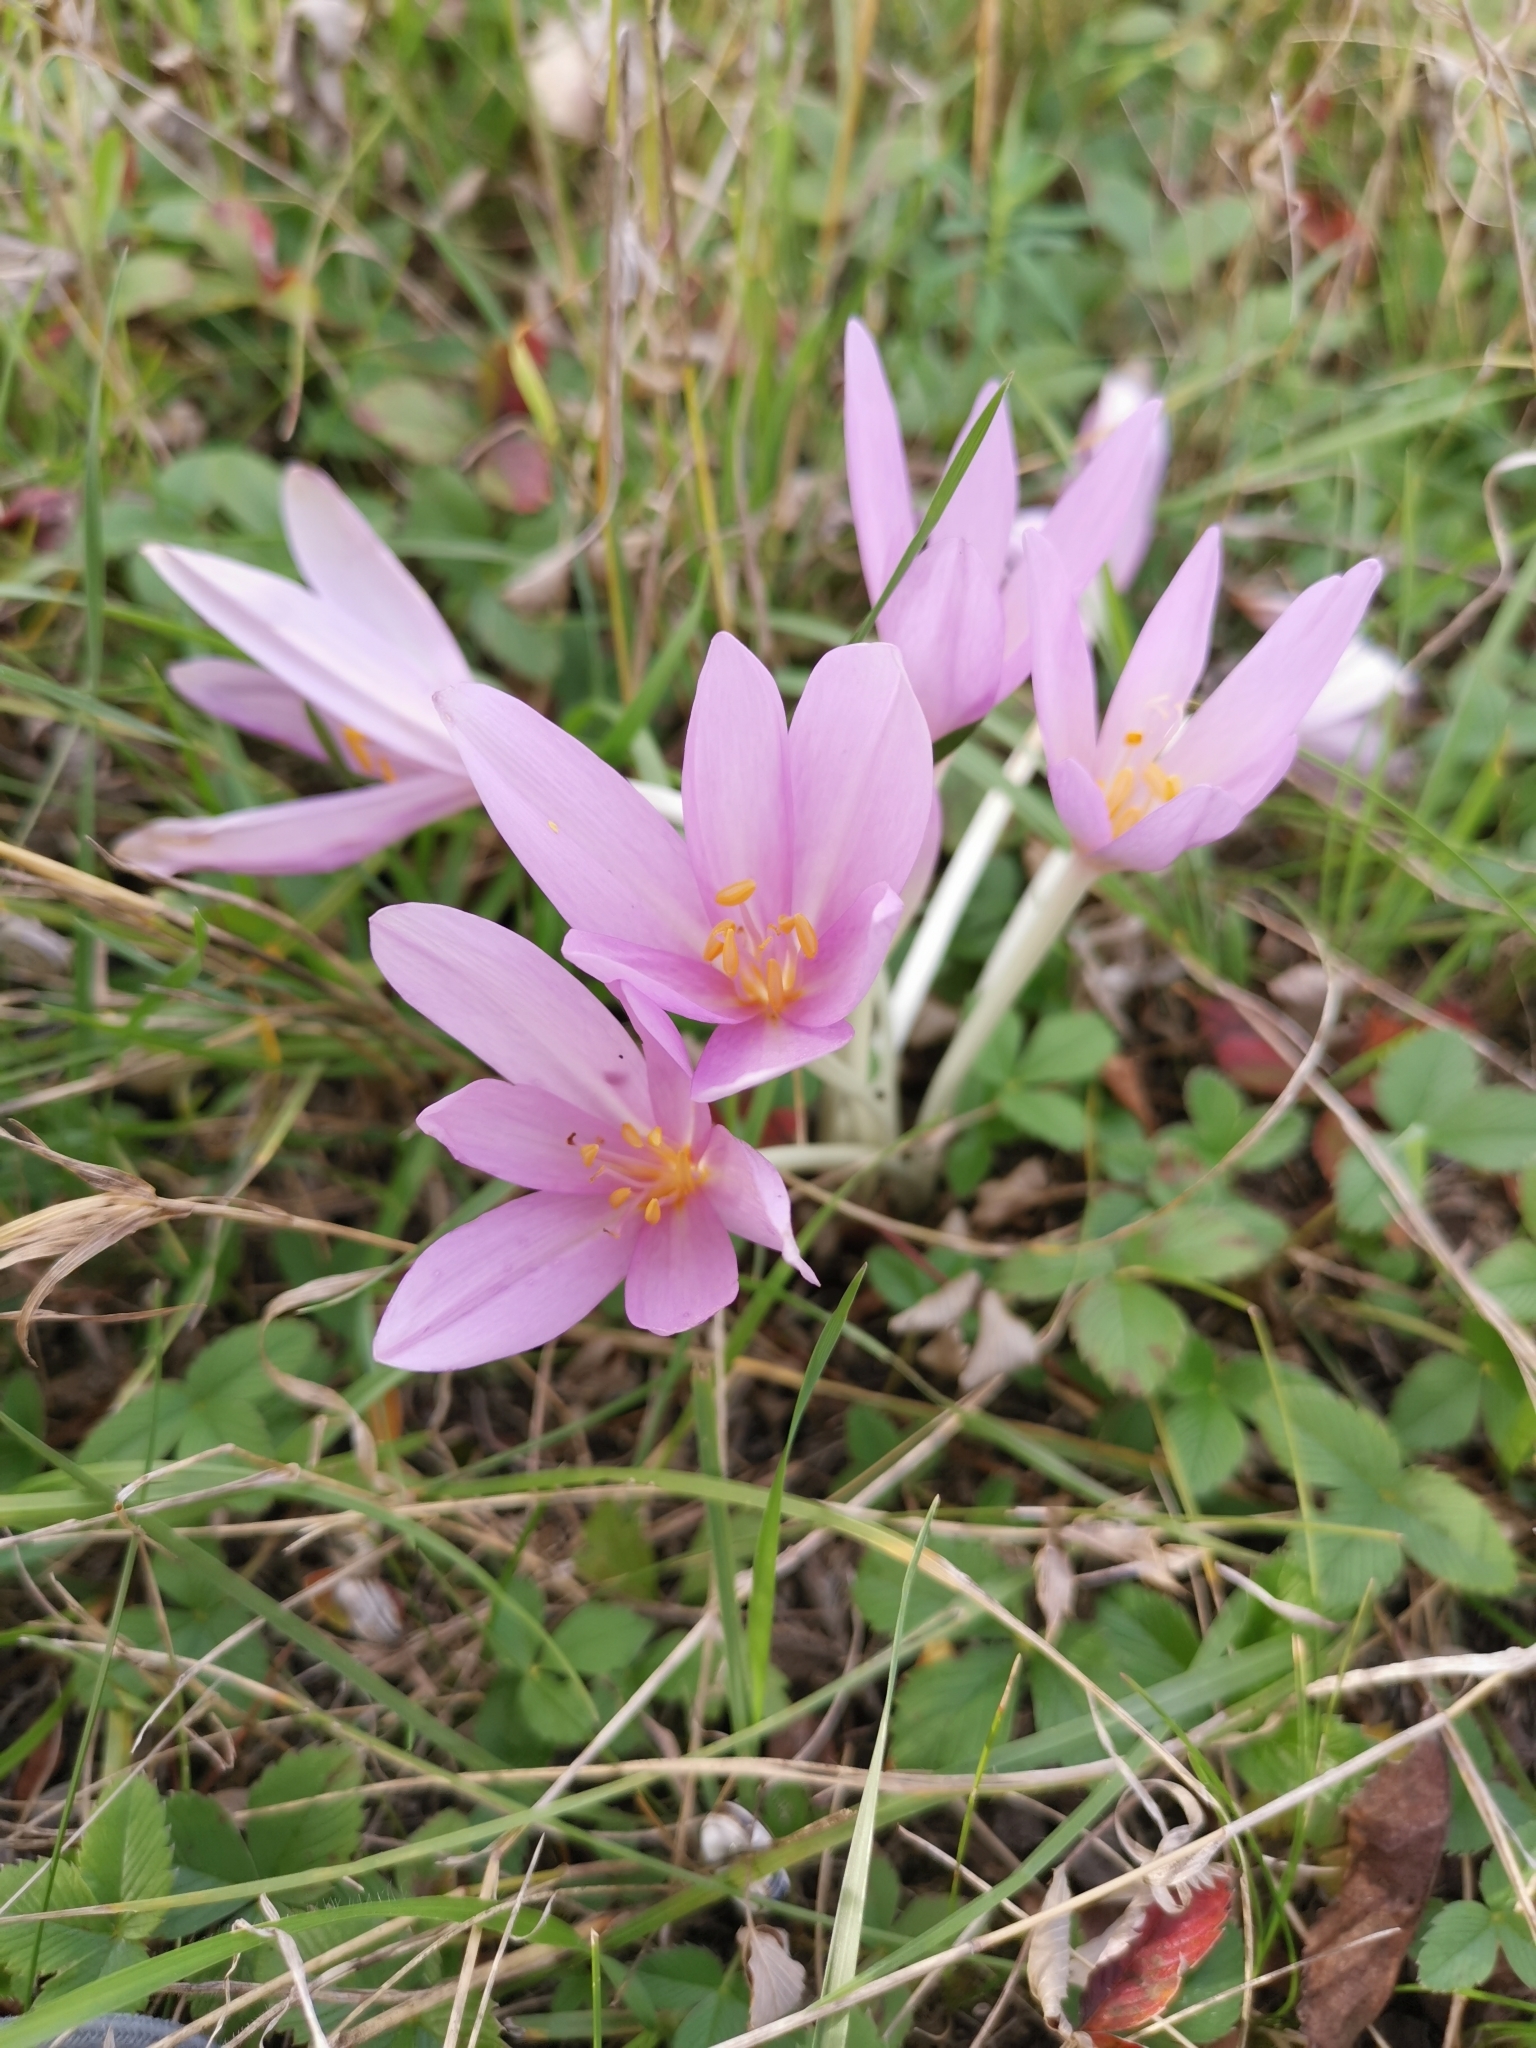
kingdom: Plantae
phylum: Tracheophyta
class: Liliopsida
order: Liliales
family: Colchicaceae
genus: Colchicum
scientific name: Colchicum autumnale
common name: Autumn crocus
